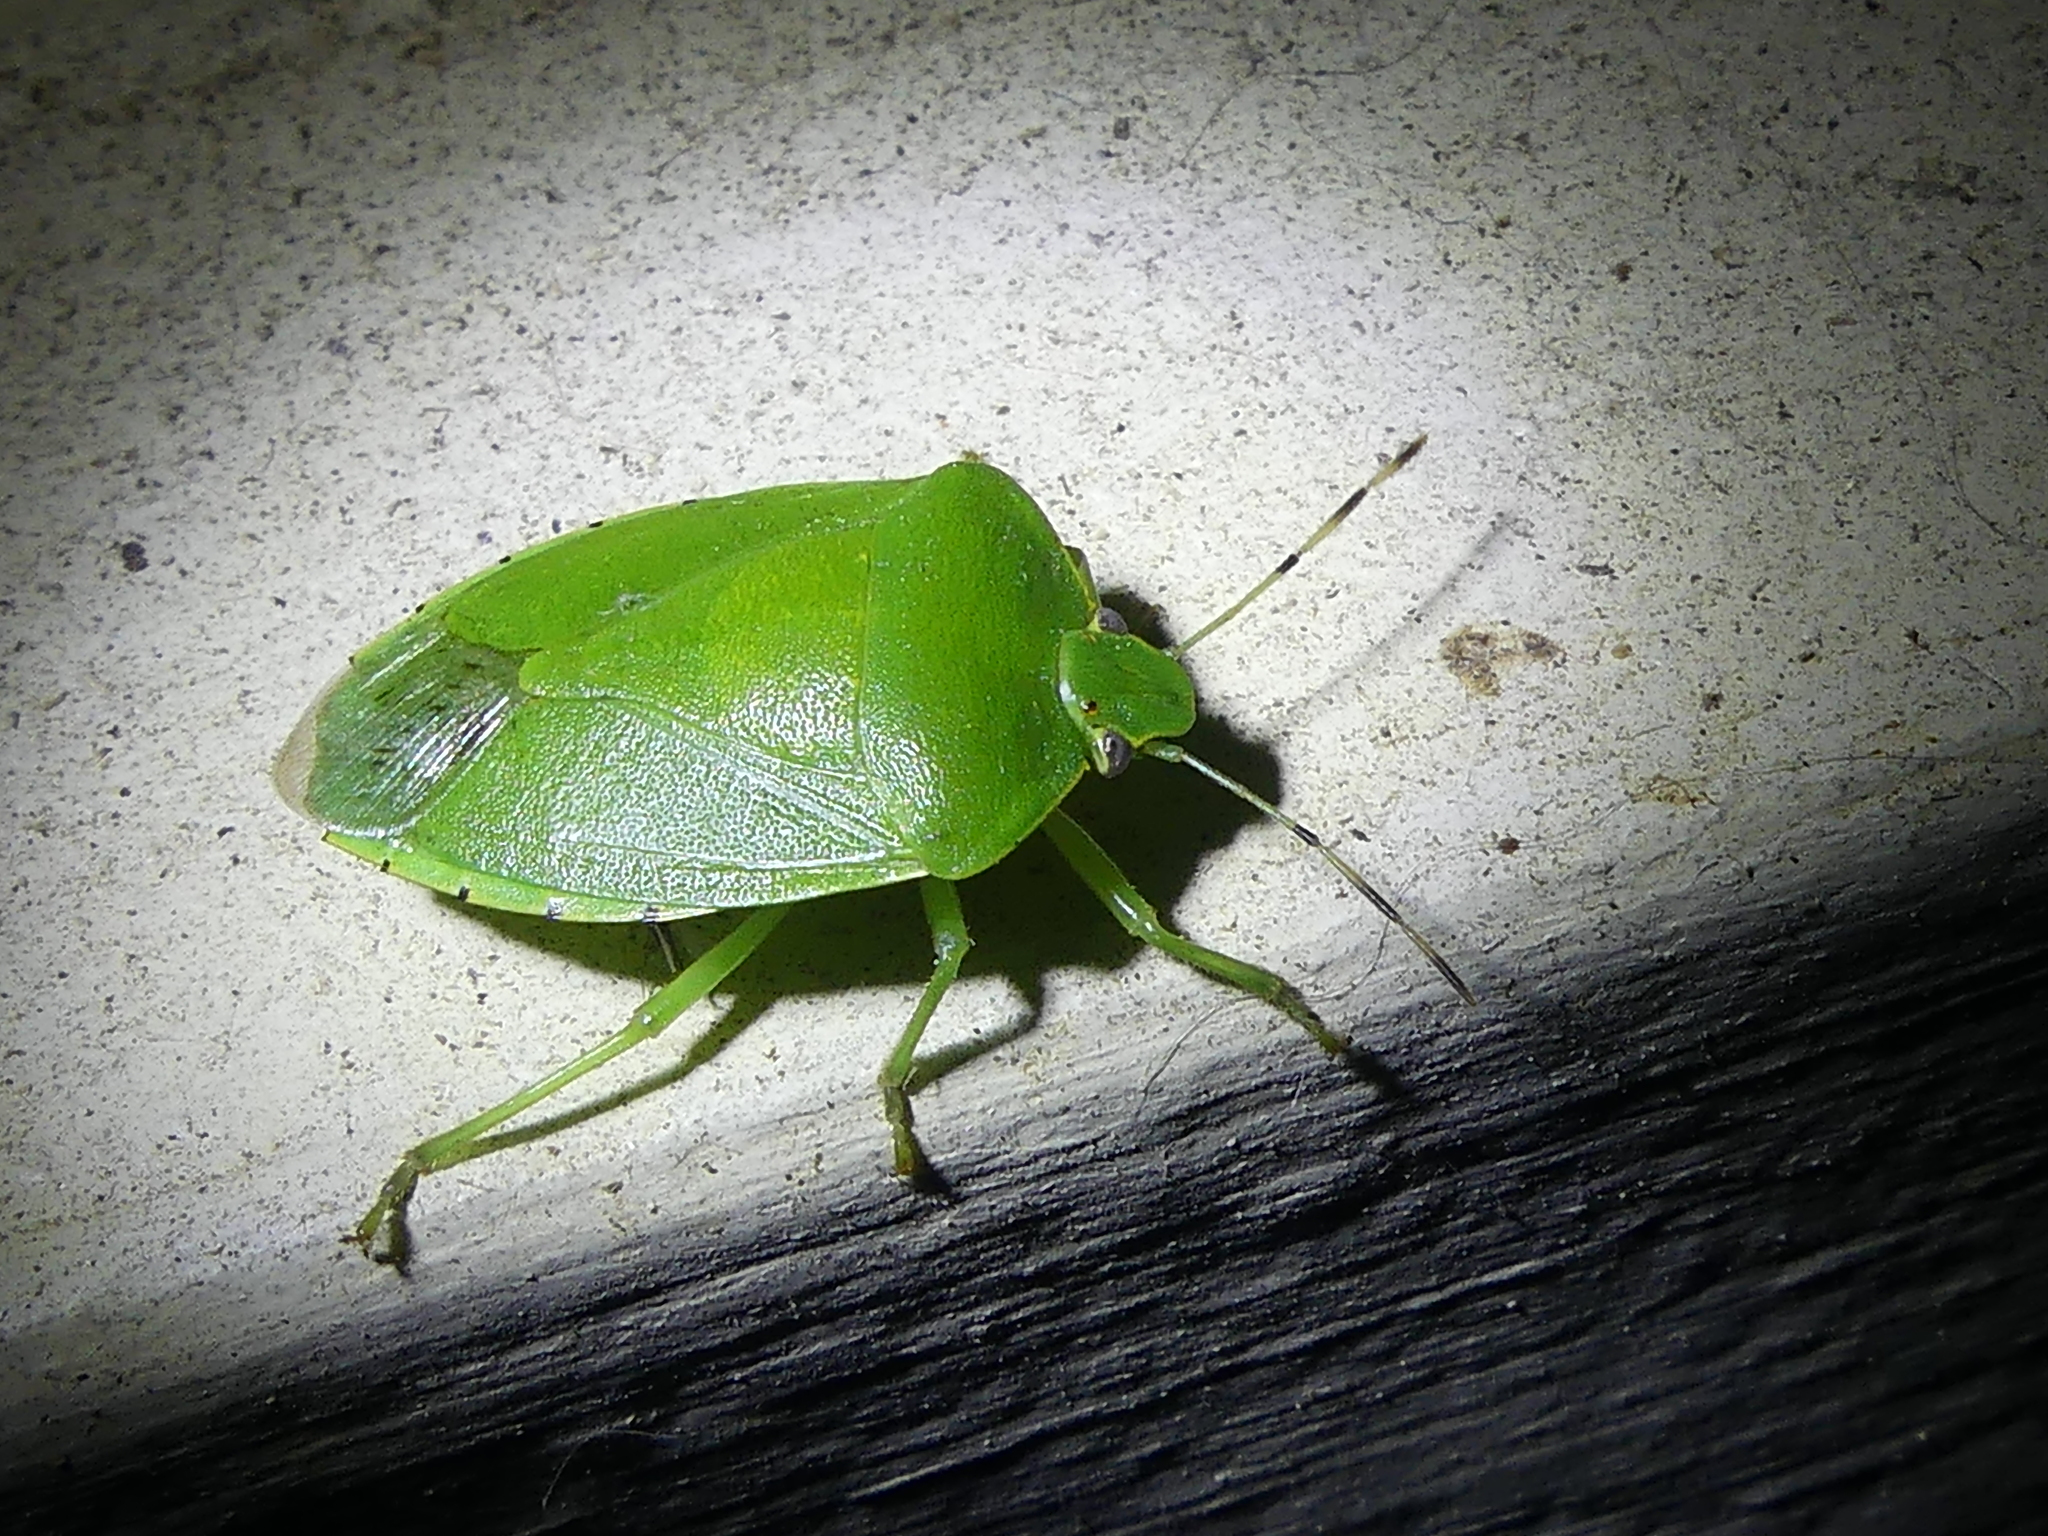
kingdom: Animalia
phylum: Arthropoda
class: Insecta
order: Hemiptera
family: Pentatomidae
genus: Chinavia
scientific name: Chinavia hilaris
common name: Green stink bug
